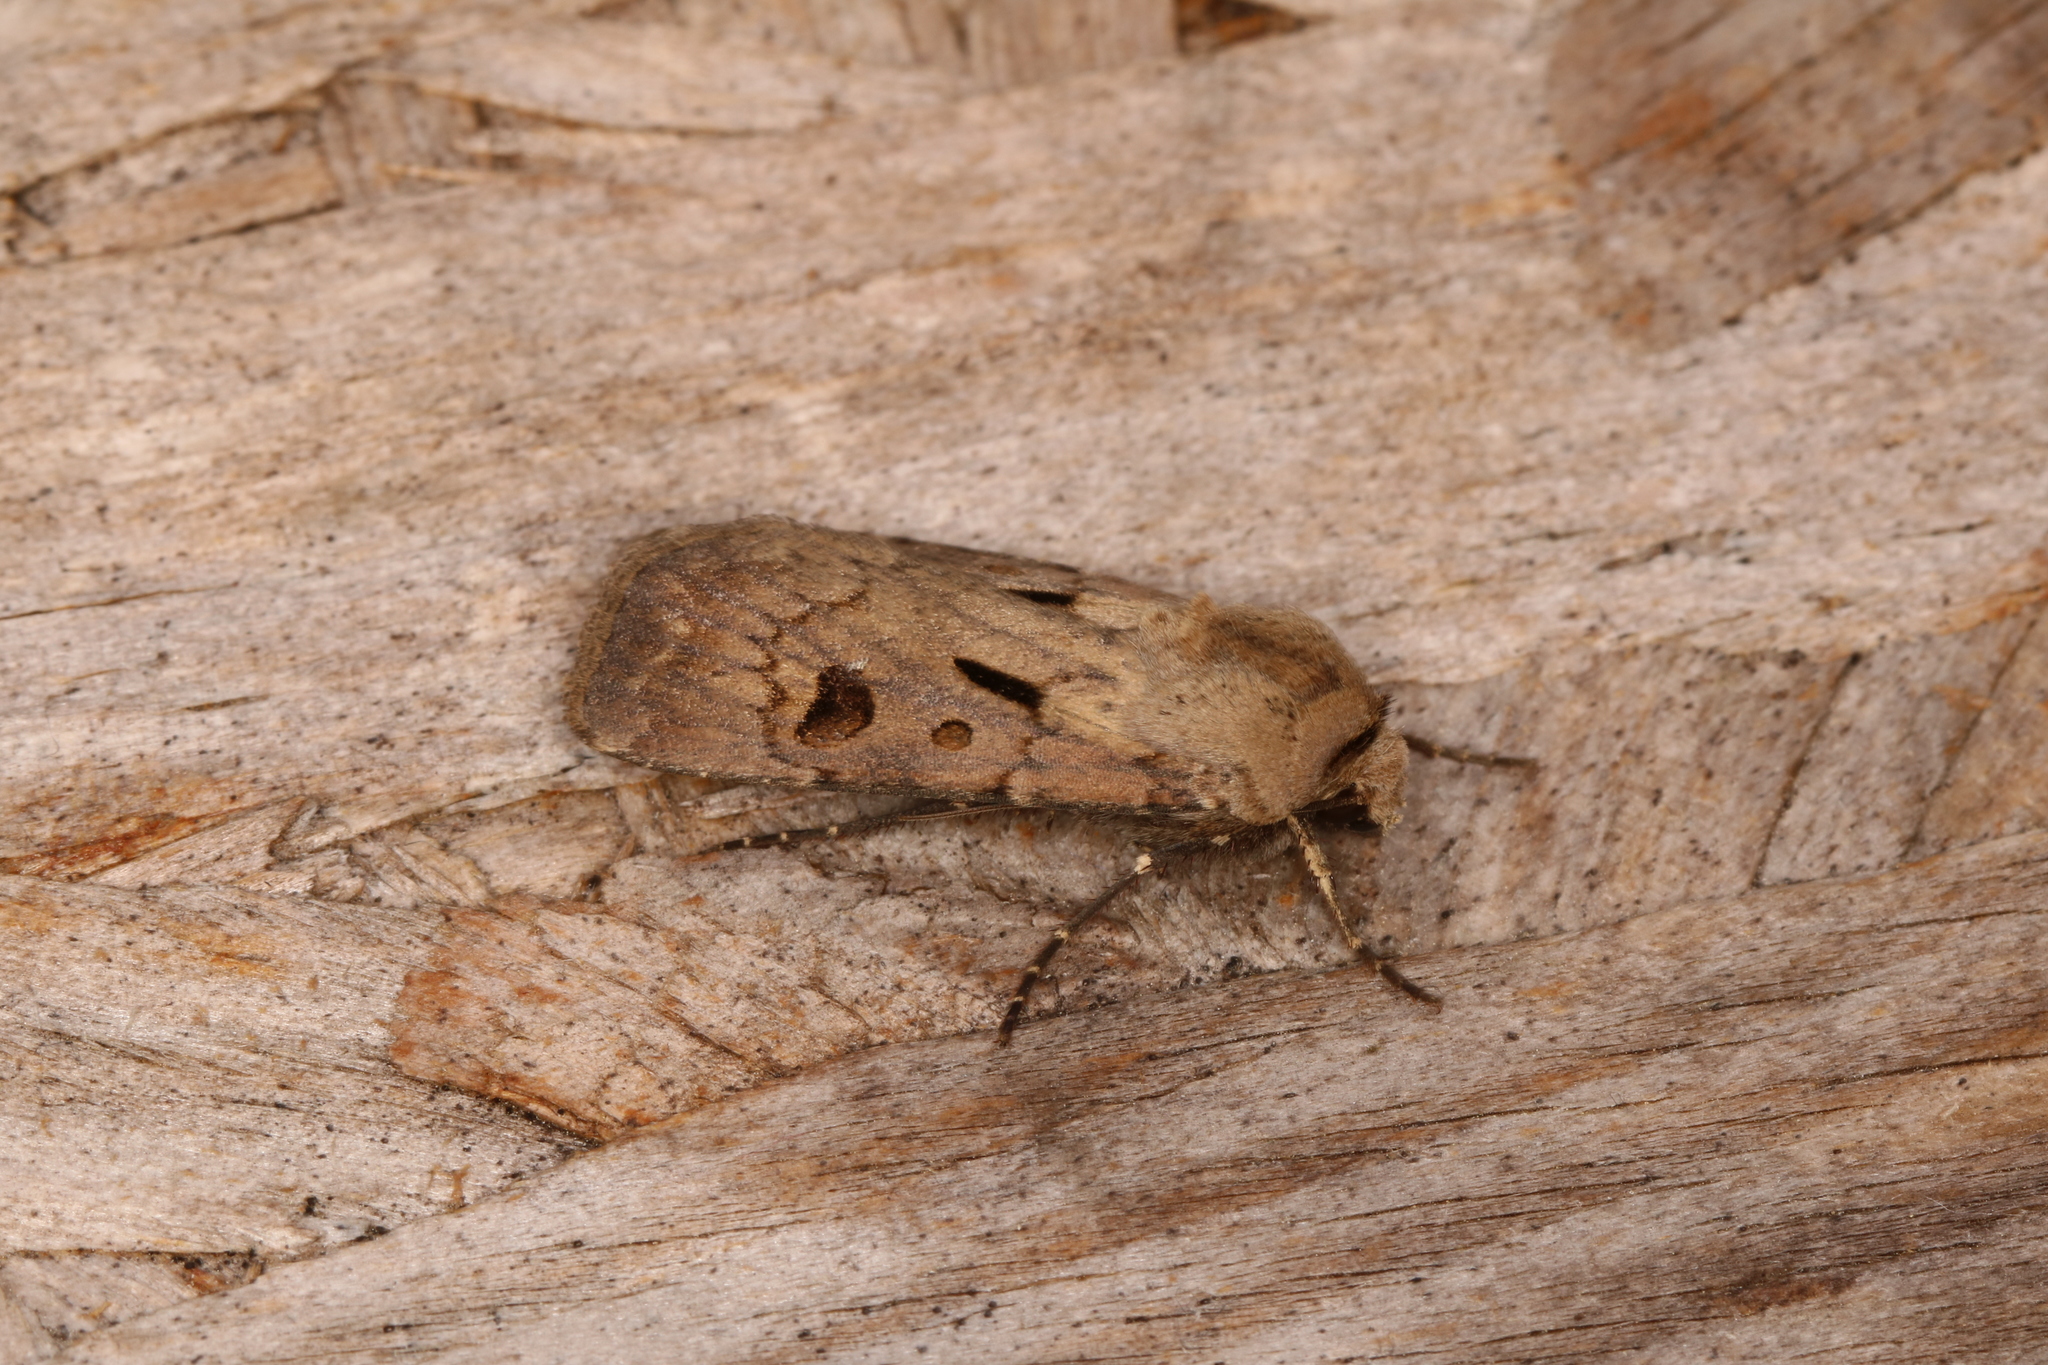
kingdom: Animalia
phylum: Arthropoda
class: Insecta
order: Lepidoptera
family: Noctuidae
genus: Agrotis
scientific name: Agrotis exclamationis
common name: Heart and dart
